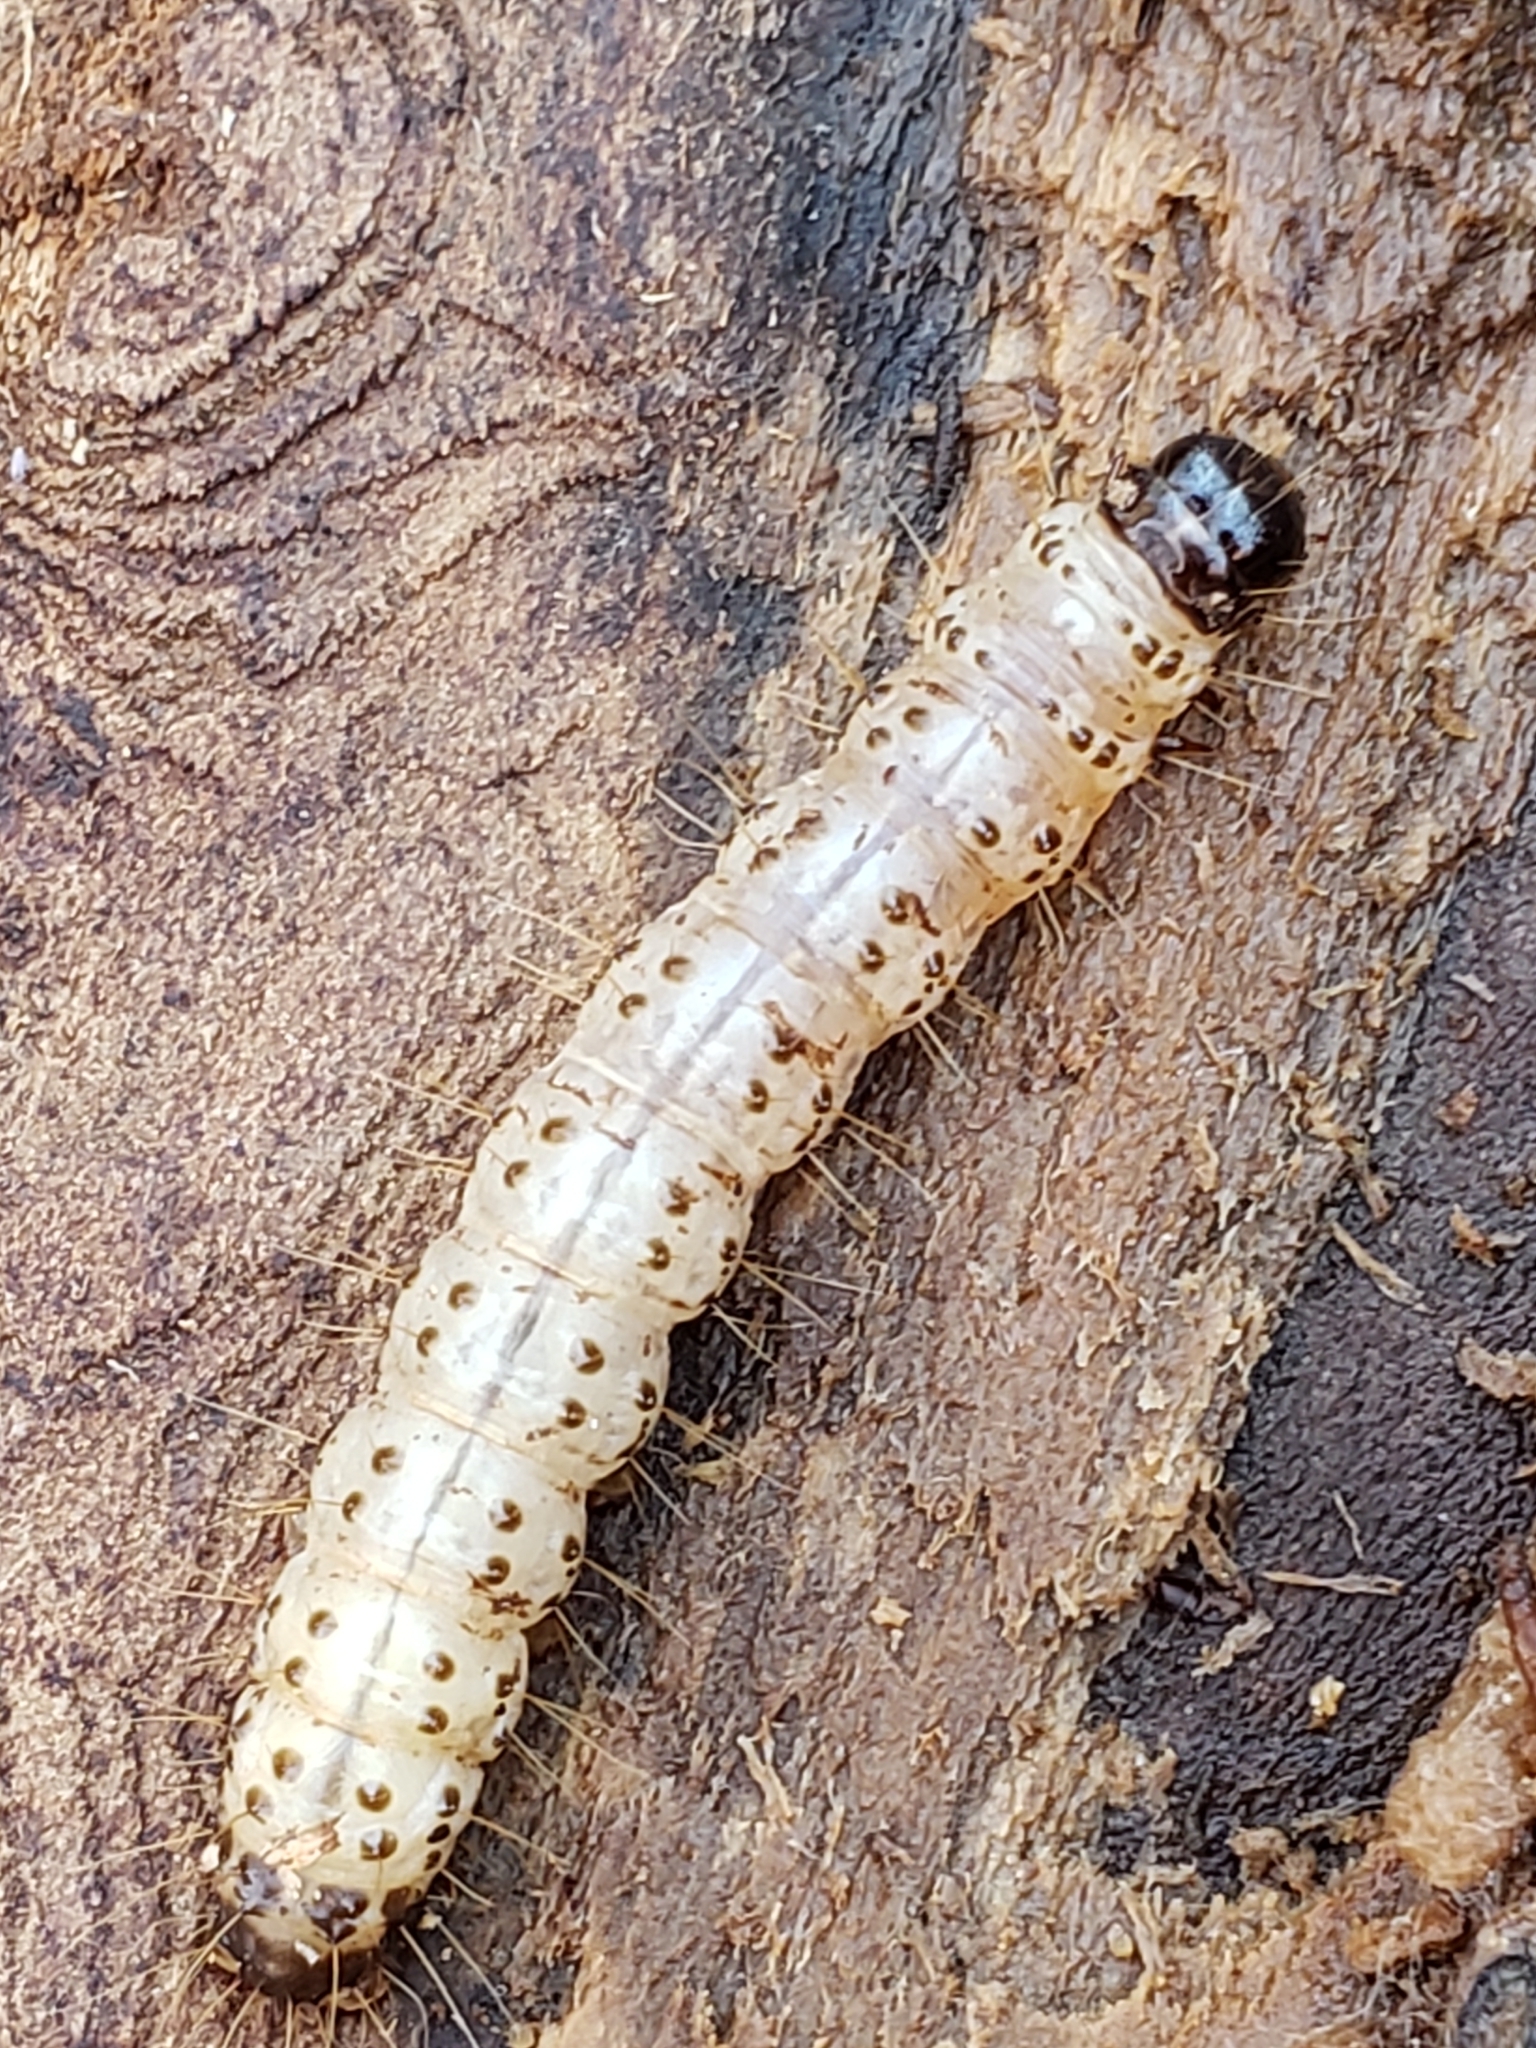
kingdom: Animalia
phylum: Arthropoda
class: Insecta
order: Lepidoptera
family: Erebidae
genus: Scolecocampa
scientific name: Scolecocampa liburna
